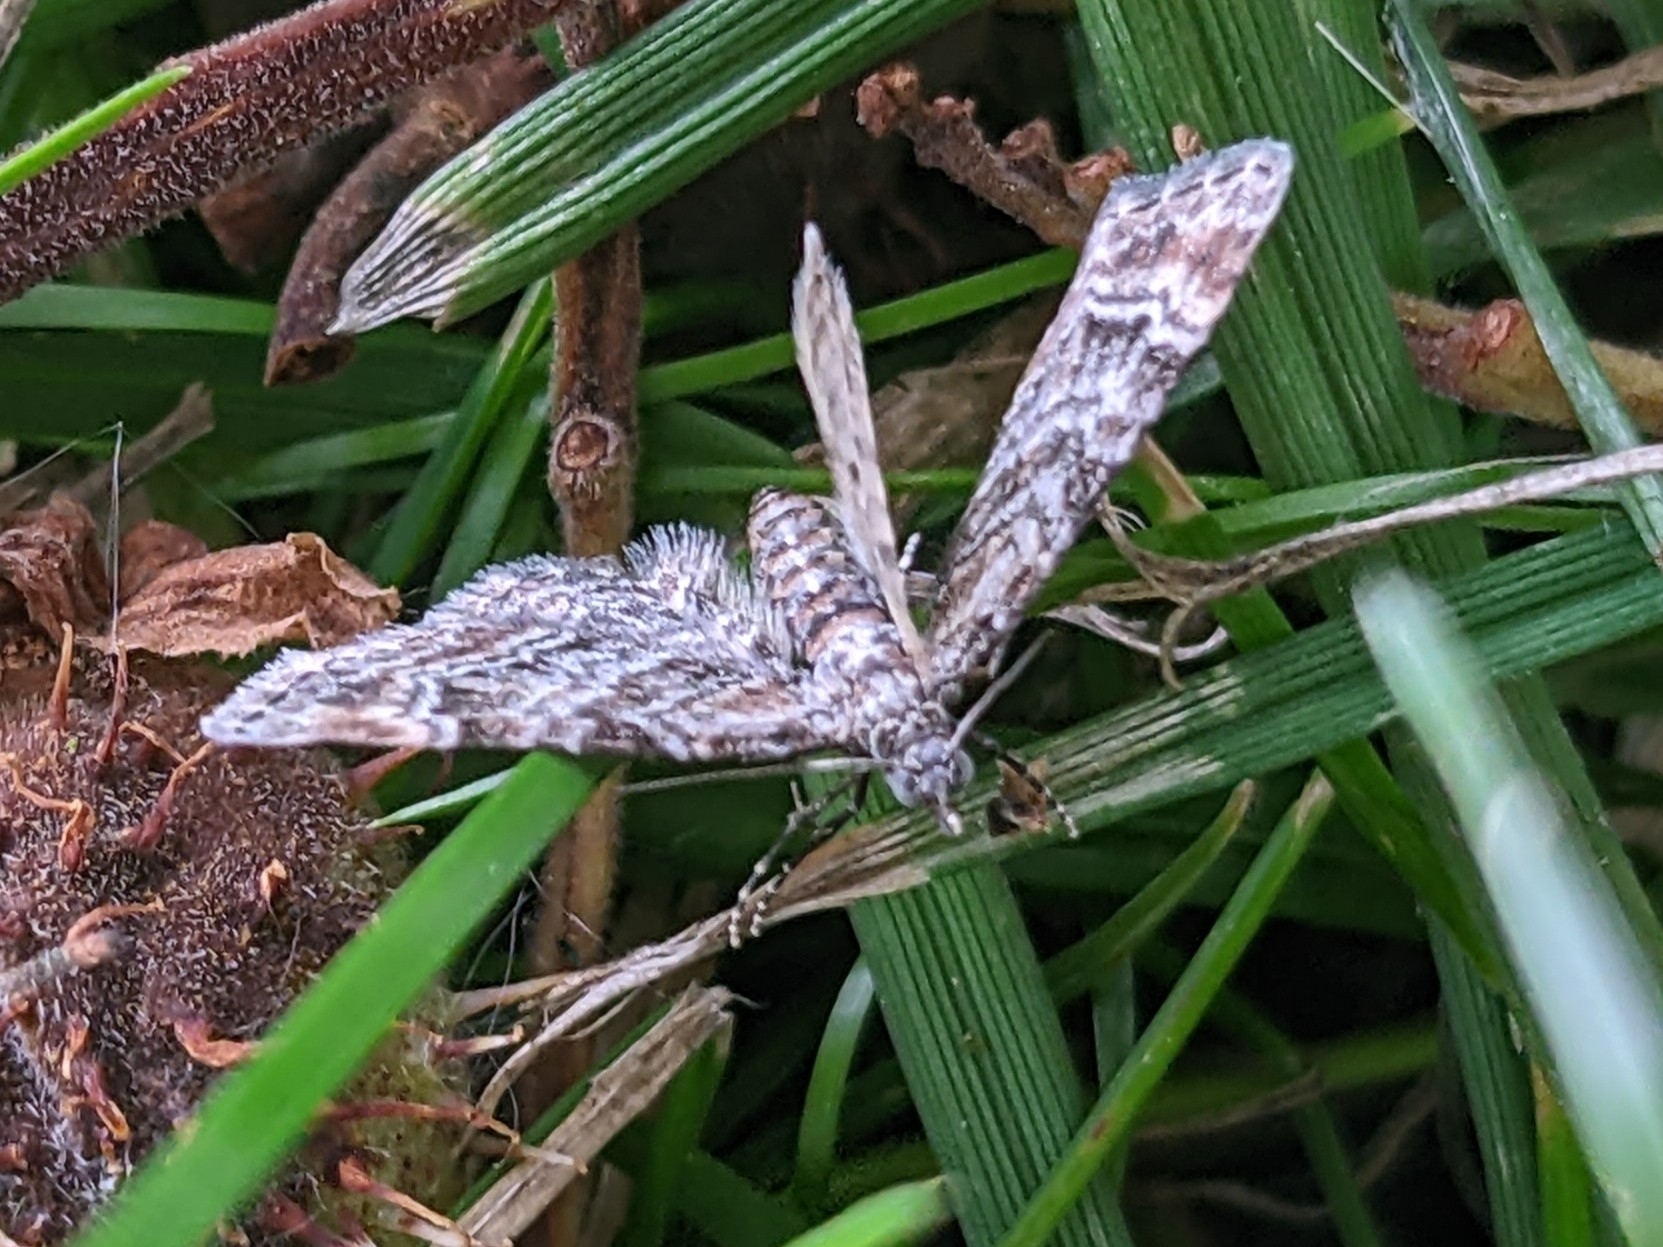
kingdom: Animalia
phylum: Arthropoda
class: Insecta
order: Lepidoptera
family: Geometridae
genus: Gymnoscelis
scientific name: Gymnoscelis rufifasciata
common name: Double-striped pug
